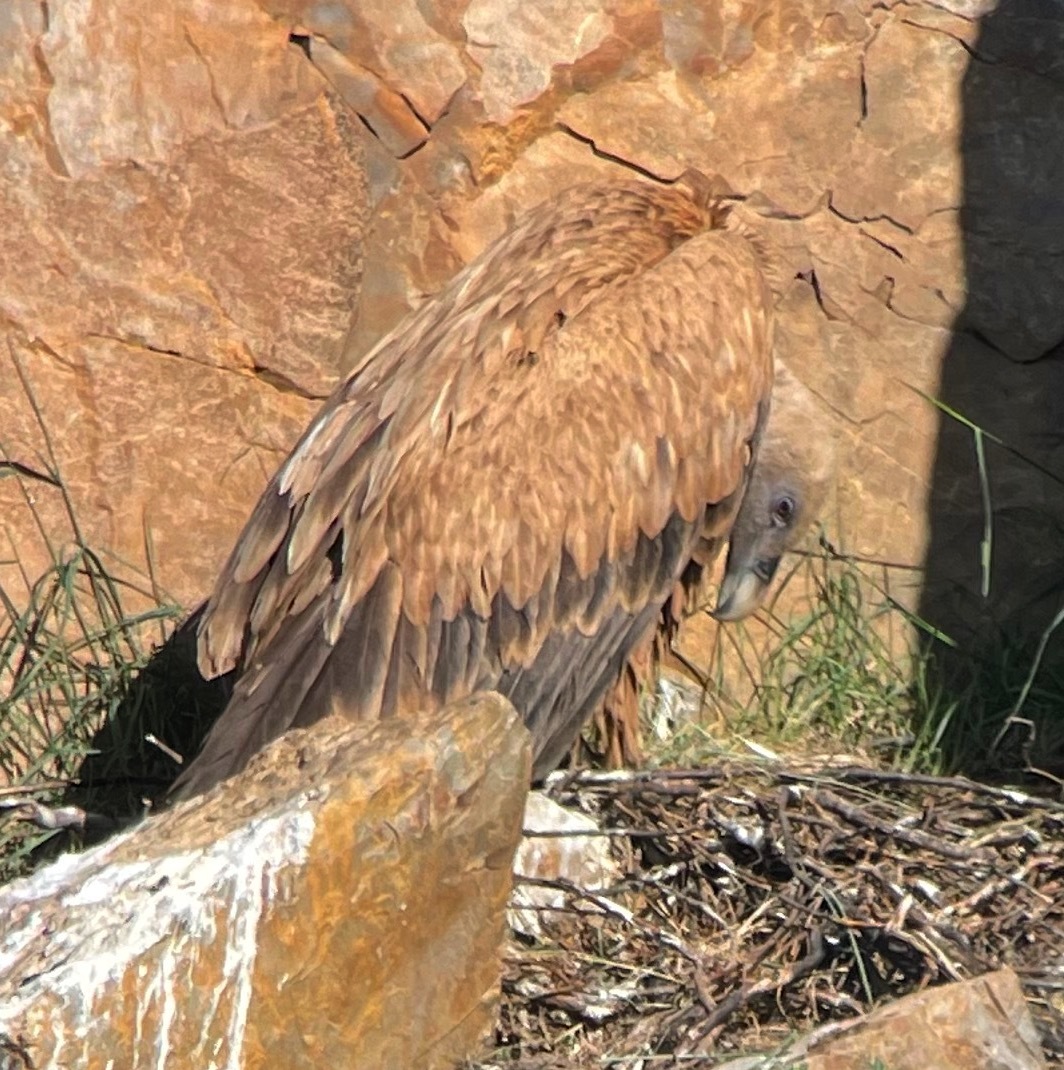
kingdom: Animalia
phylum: Chordata
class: Aves
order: Accipitriformes
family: Accipitridae
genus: Gyps
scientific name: Gyps fulvus
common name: Griffon vulture
